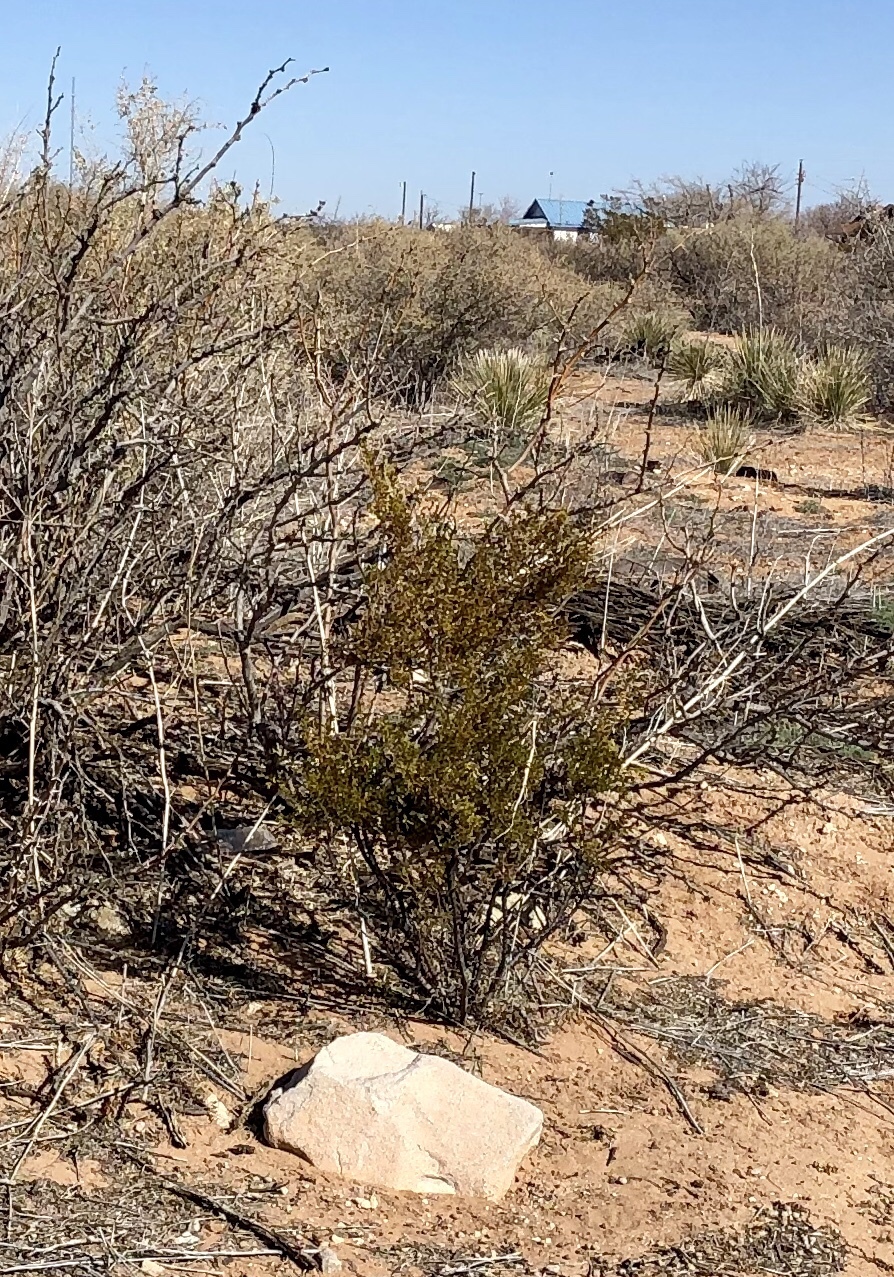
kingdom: Plantae
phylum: Tracheophyta
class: Magnoliopsida
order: Zygophyllales
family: Zygophyllaceae
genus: Larrea
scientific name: Larrea tridentata
